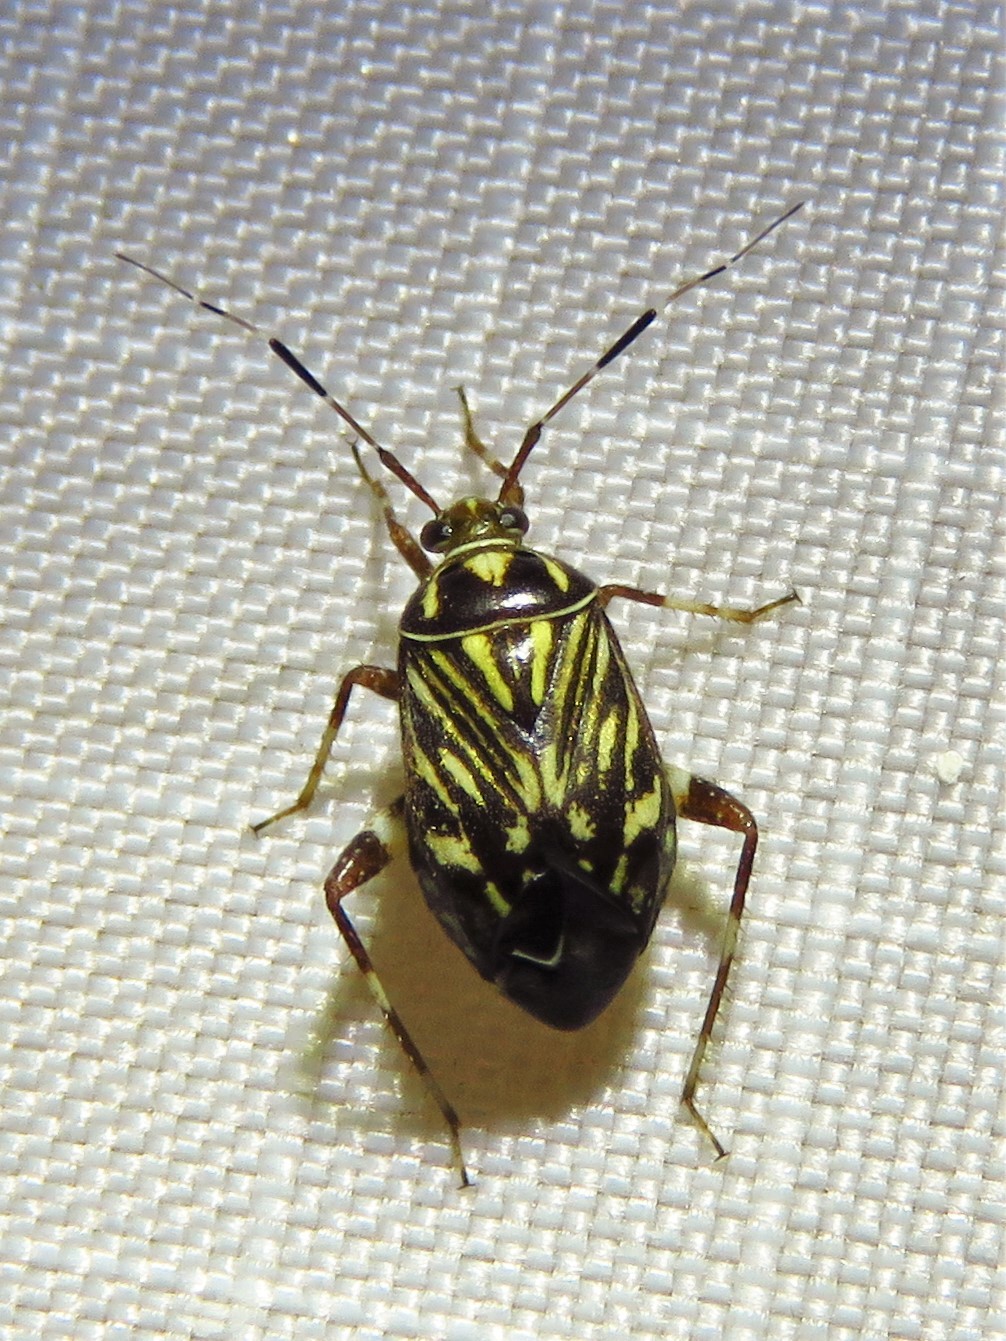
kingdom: Animalia
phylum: Arthropoda
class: Insecta
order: Hemiptera
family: Miridae
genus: Taedia
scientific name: Taedia virgulata
